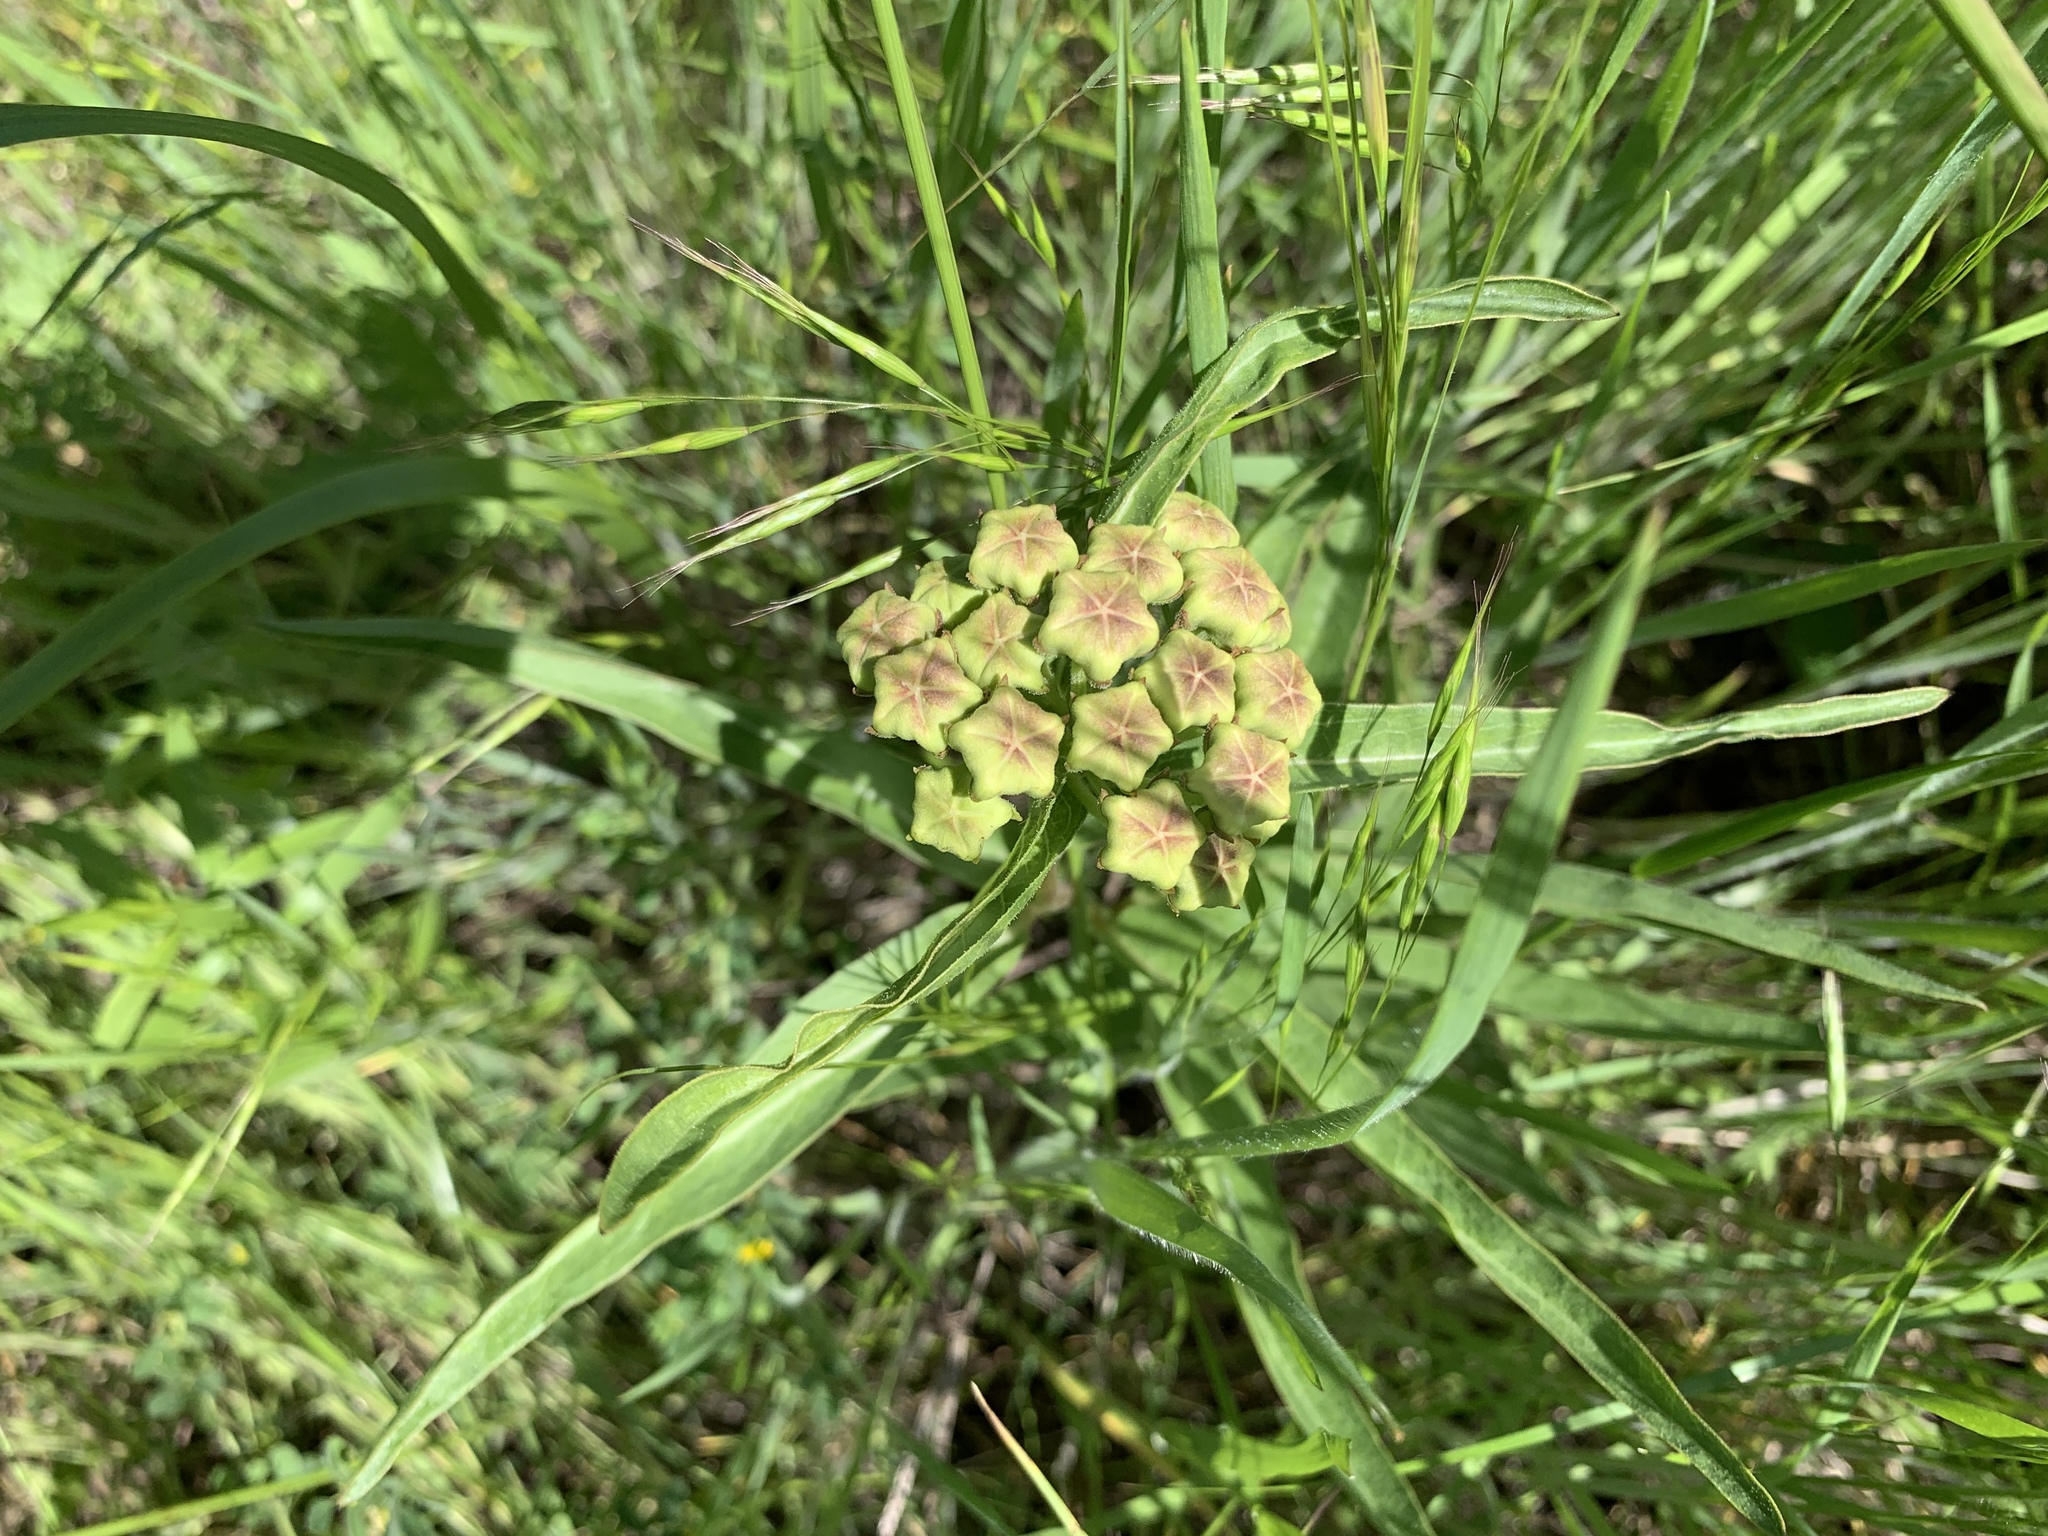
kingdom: Plantae
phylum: Tracheophyta
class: Magnoliopsida
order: Gentianales
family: Apocynaceae
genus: Asclepias
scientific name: Asclepias asperula
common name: Antelope horns
